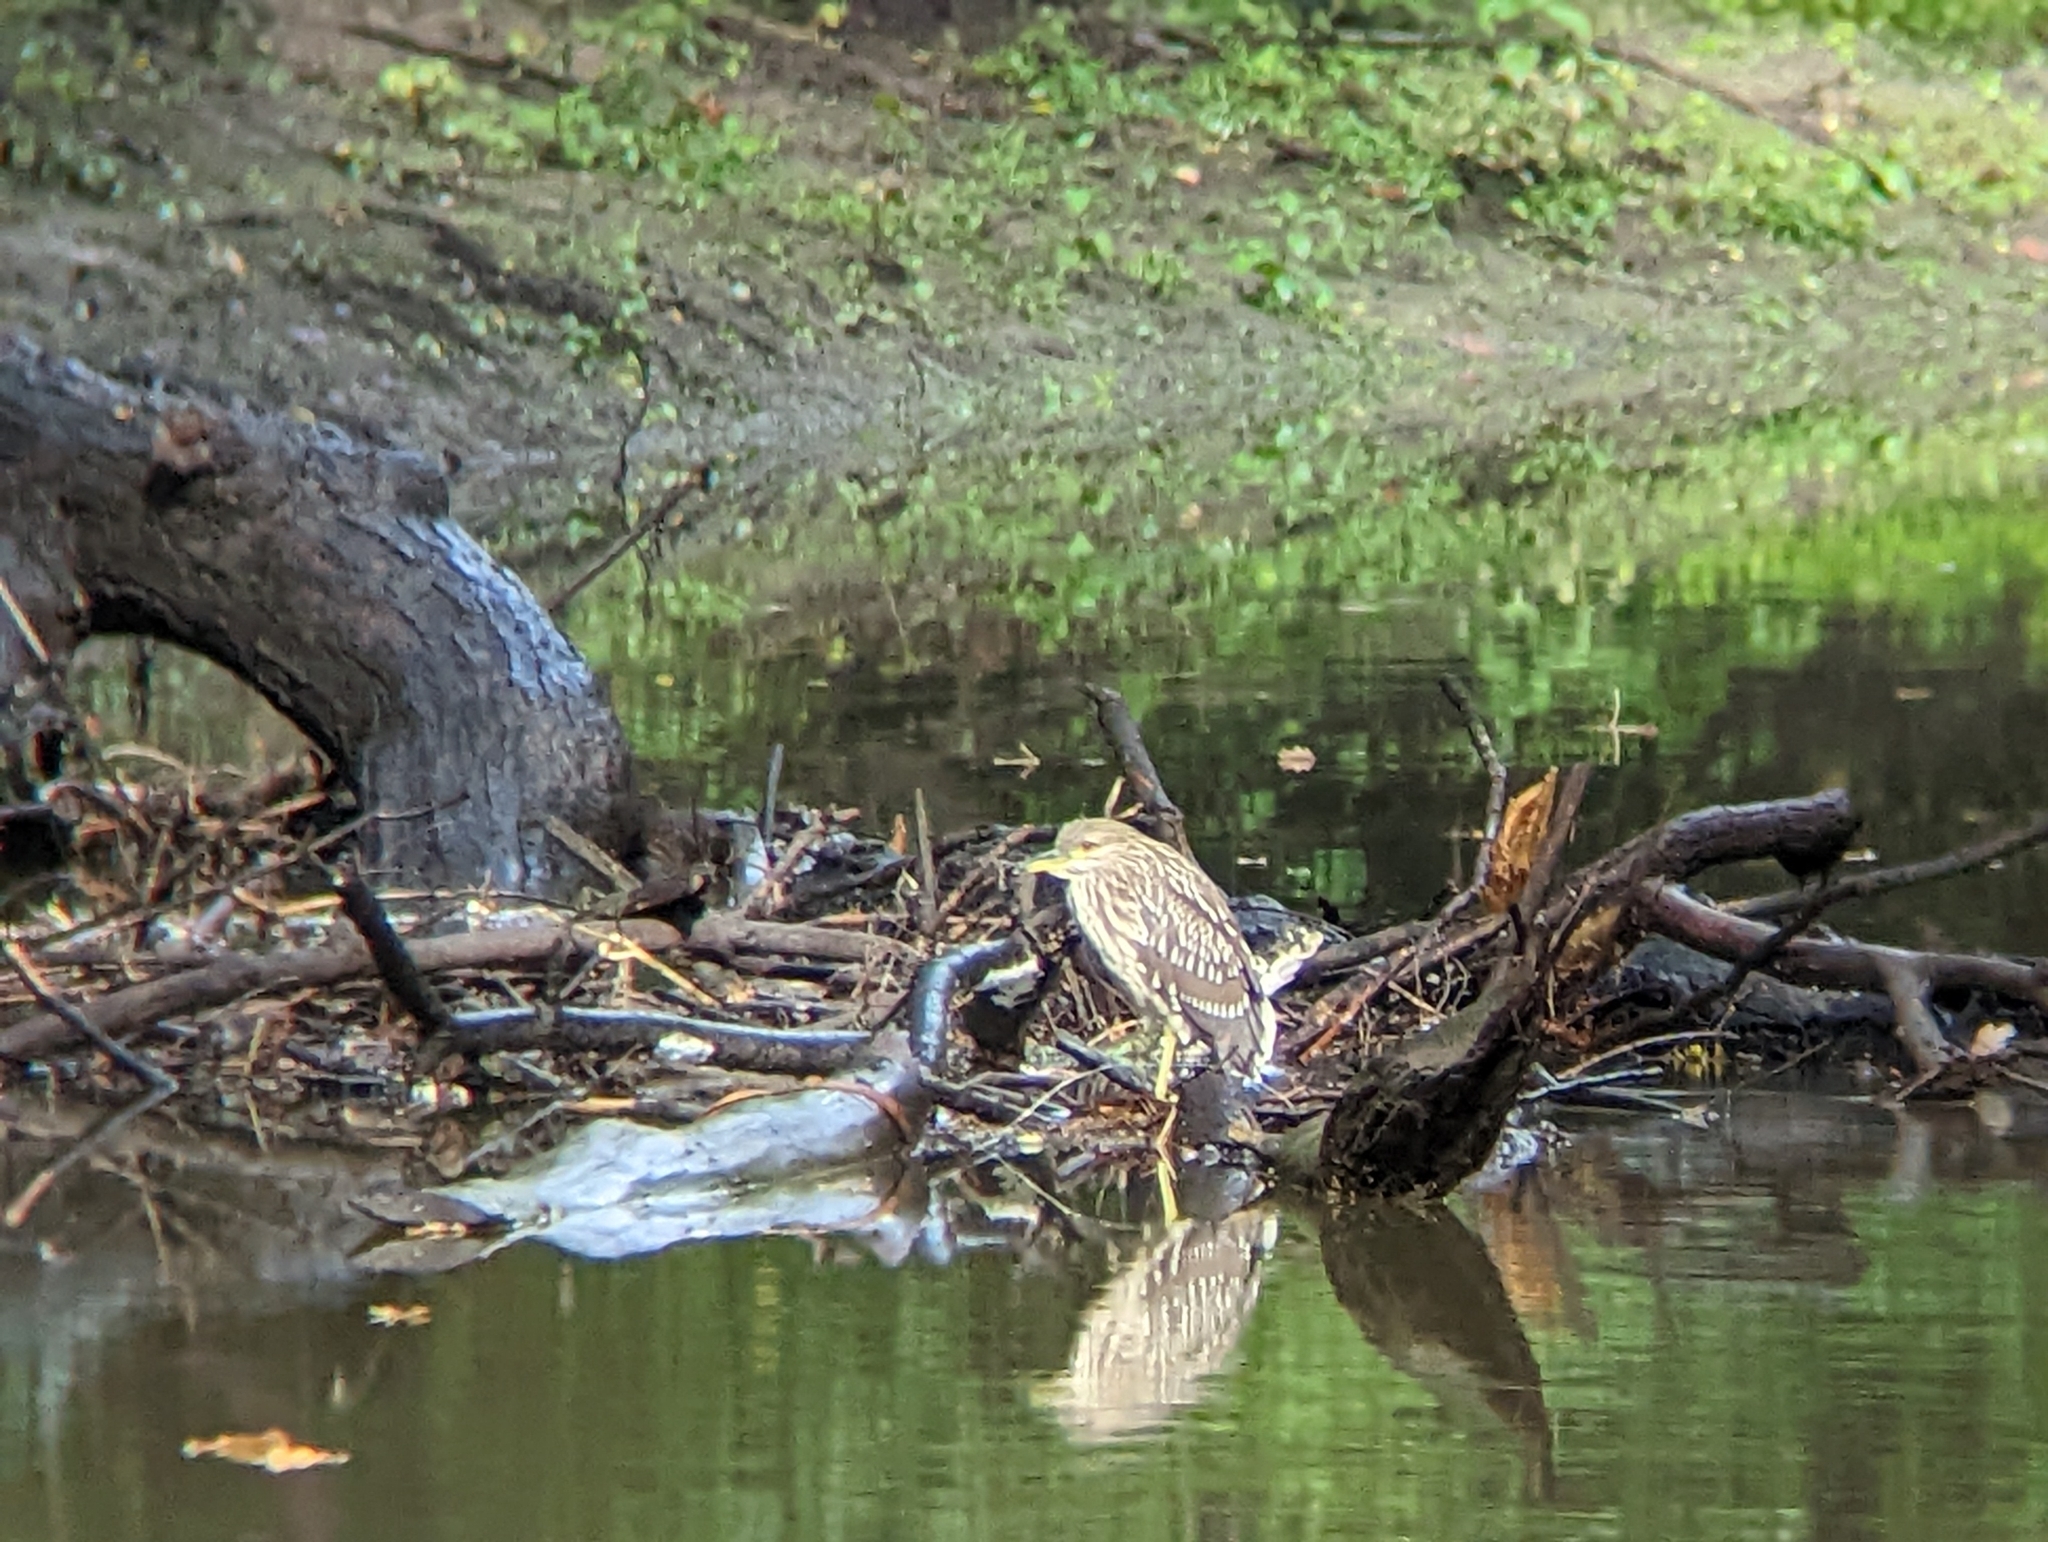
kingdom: Animalia
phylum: Chordata
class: Aves
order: Pelecaniformes
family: Ardeidae
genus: Nycticorax
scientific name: Nycticorax nycticorax
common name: Black-crowned night heron
